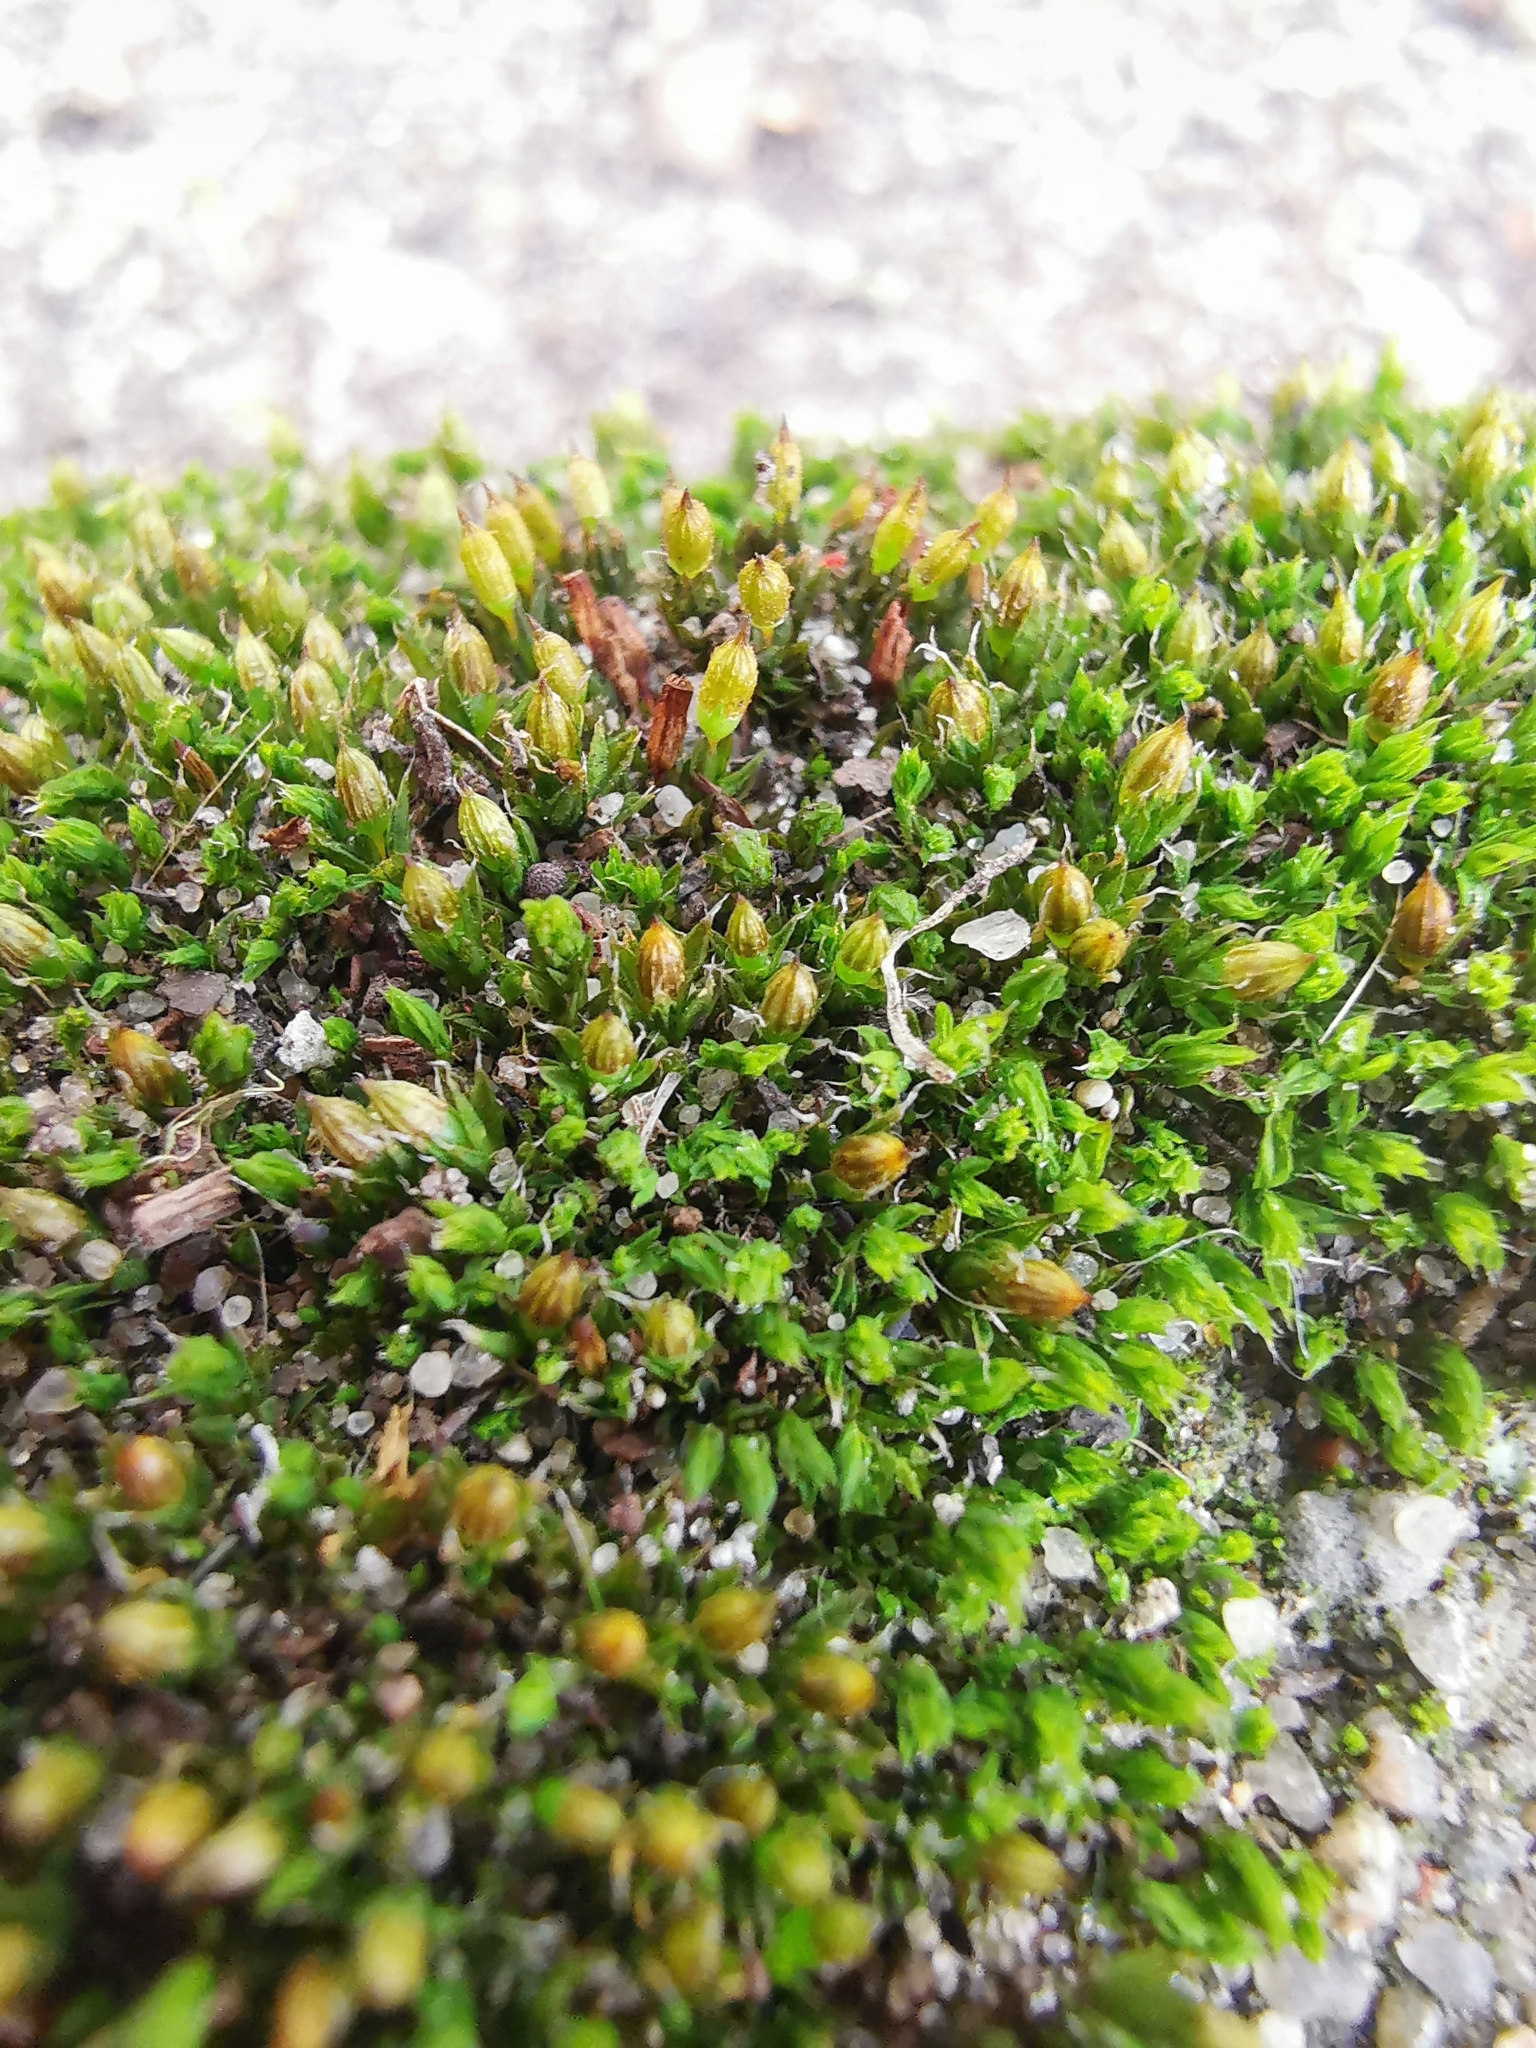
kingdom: Plantae
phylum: Bryophyta
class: Bryopsida
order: Orthotrichales
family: Orthotrichaceae
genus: Orthotrichum
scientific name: Orthotrichum diaphanum
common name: White-tipped bristle-moss
